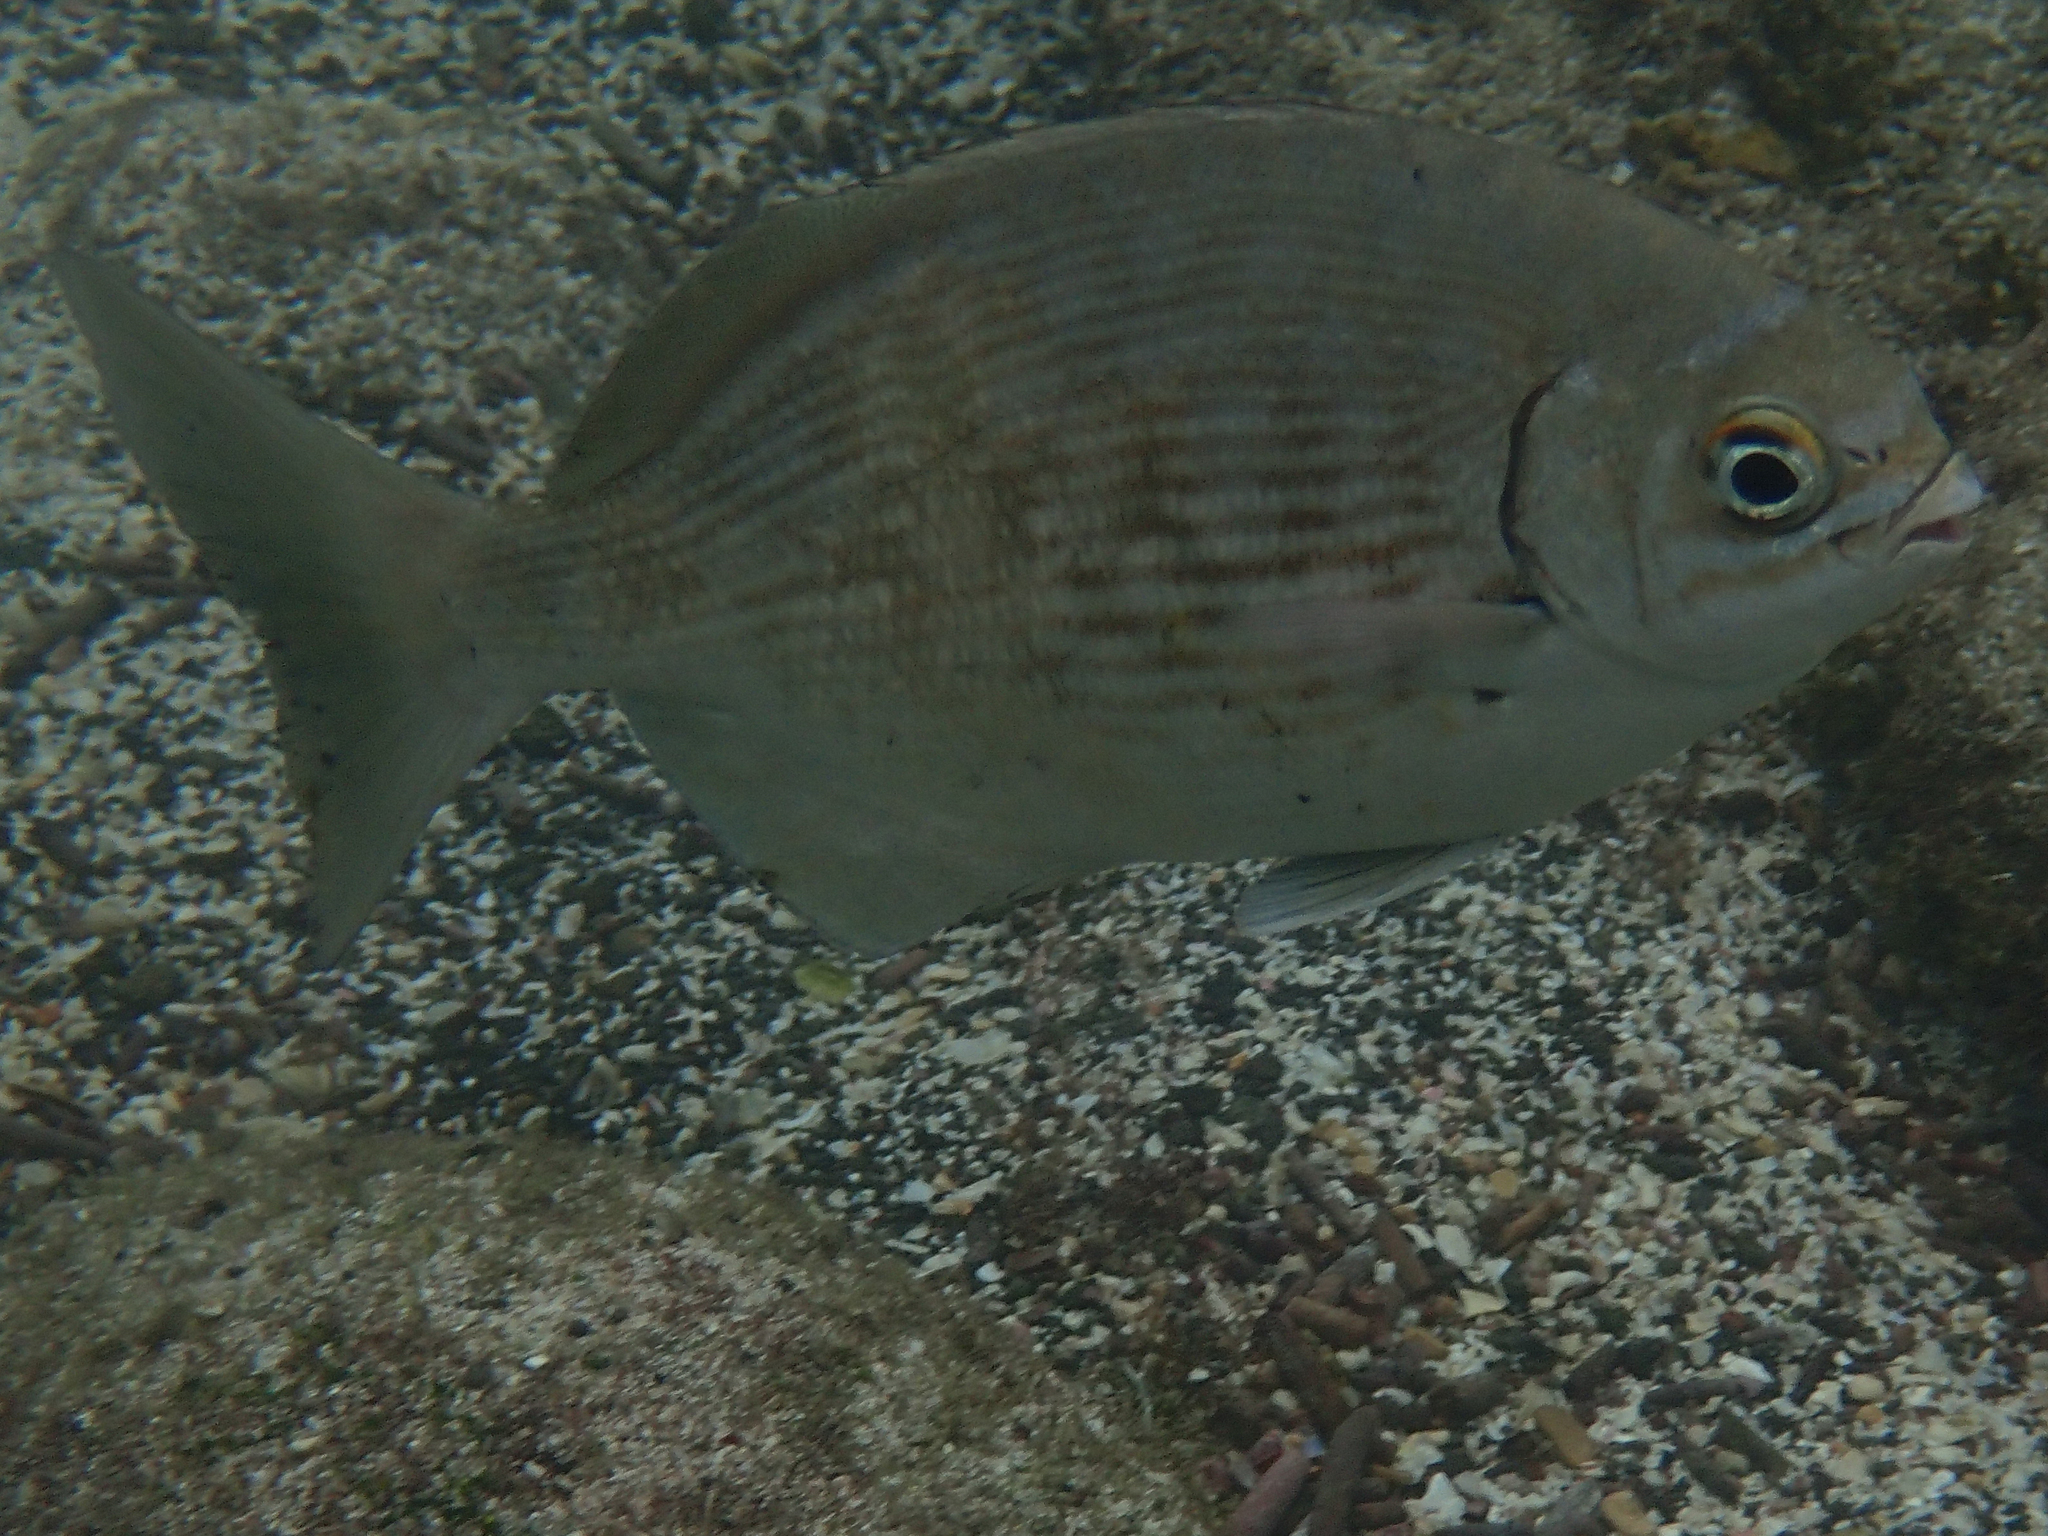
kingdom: Animalia
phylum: Chordata
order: Perciformes
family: Kyphosidae
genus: Kyphosus
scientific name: Kyphosus elegans
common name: Cortez chub
